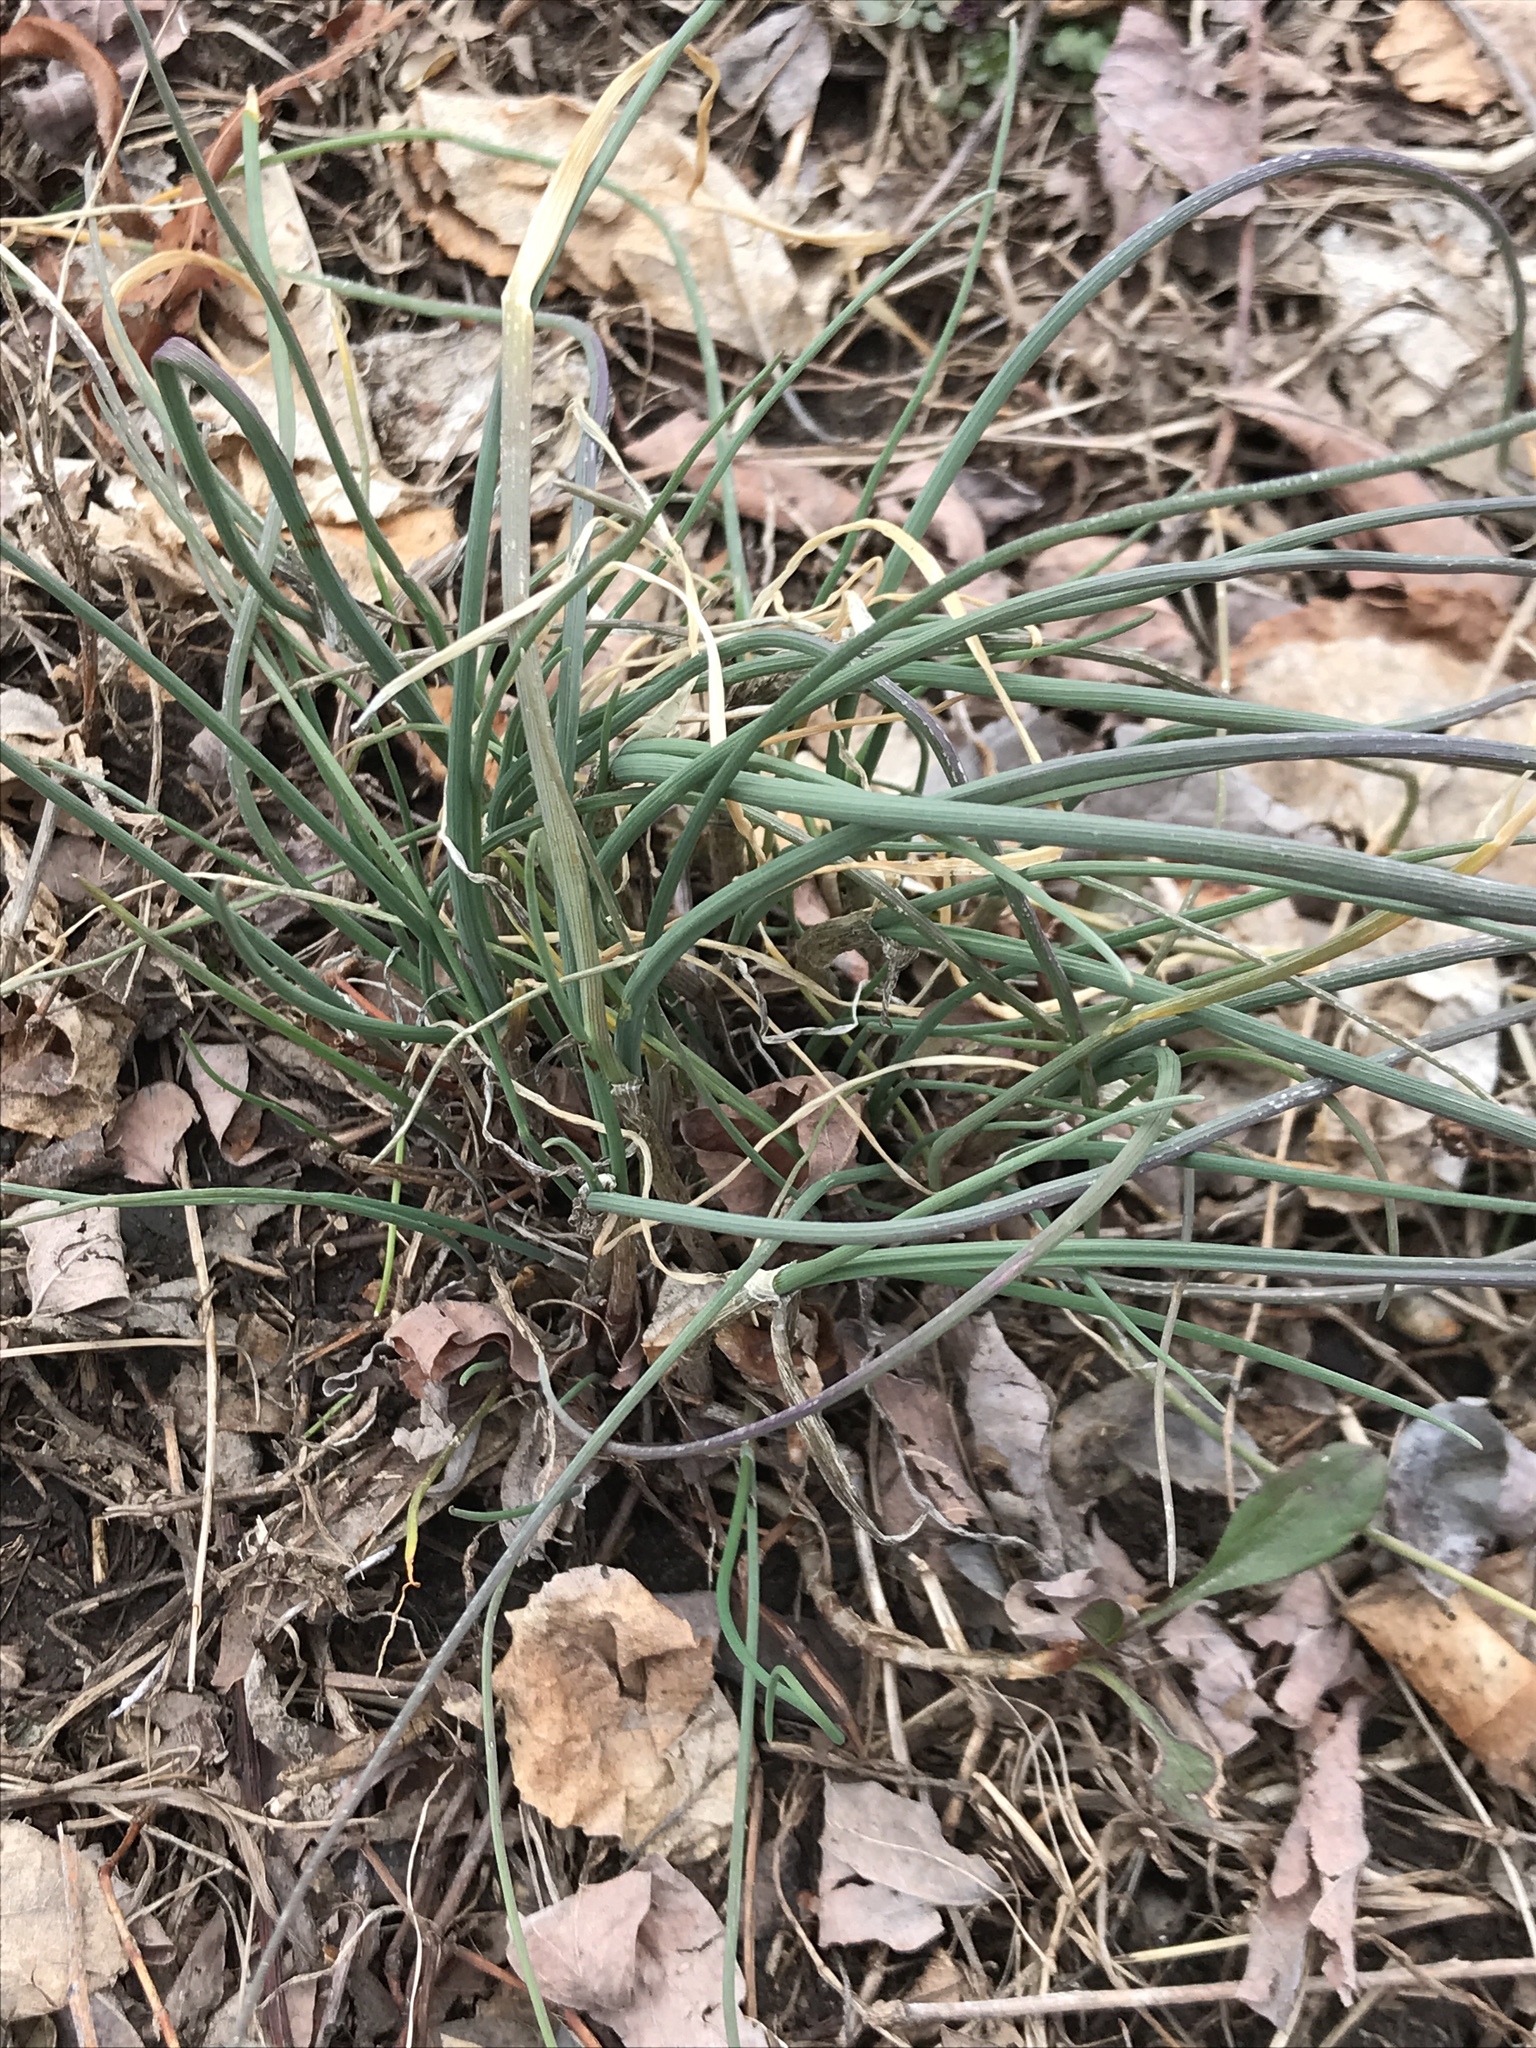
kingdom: Plantae
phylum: Tracheophyta
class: Liliopsida
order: Asparagales
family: Amaryllidaceae
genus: Allium
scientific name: Allium vineale
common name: Crow garlic
